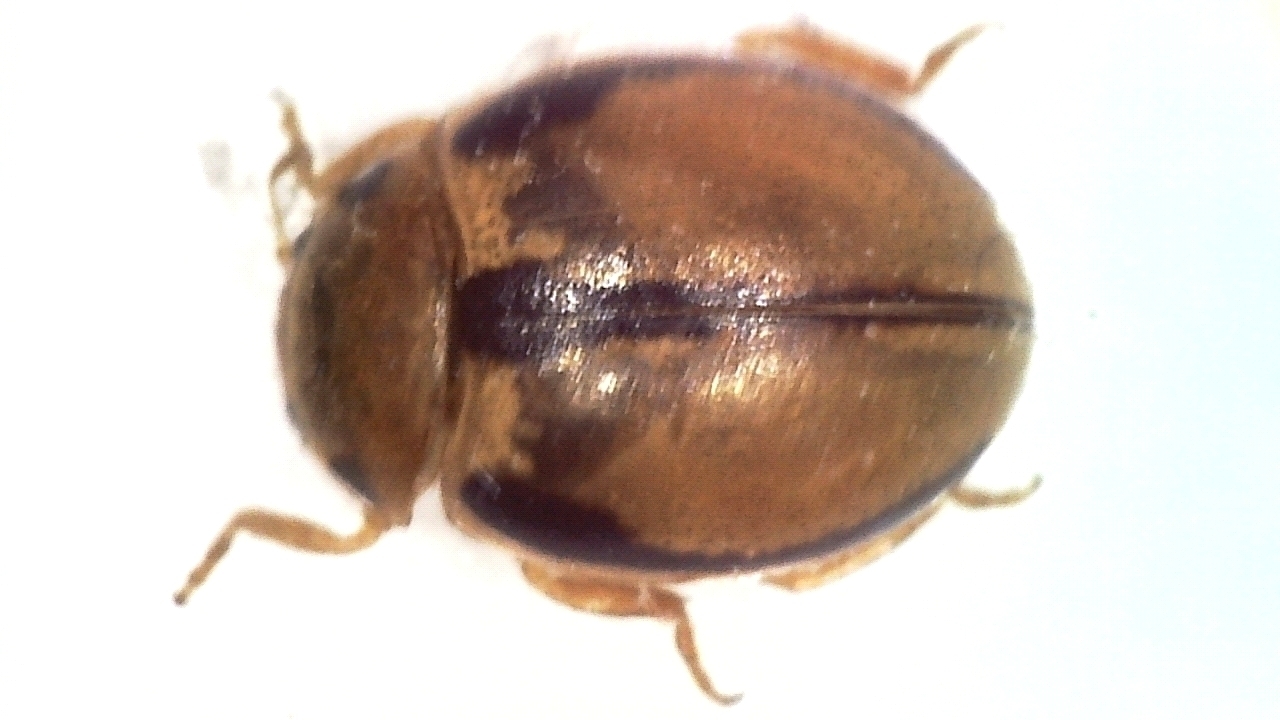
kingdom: Animalia
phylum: Arthropoda
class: Insecta
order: Coleoptera
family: Coccinellidae
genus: Tytthaspis
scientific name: Tytthaspis gebleri
